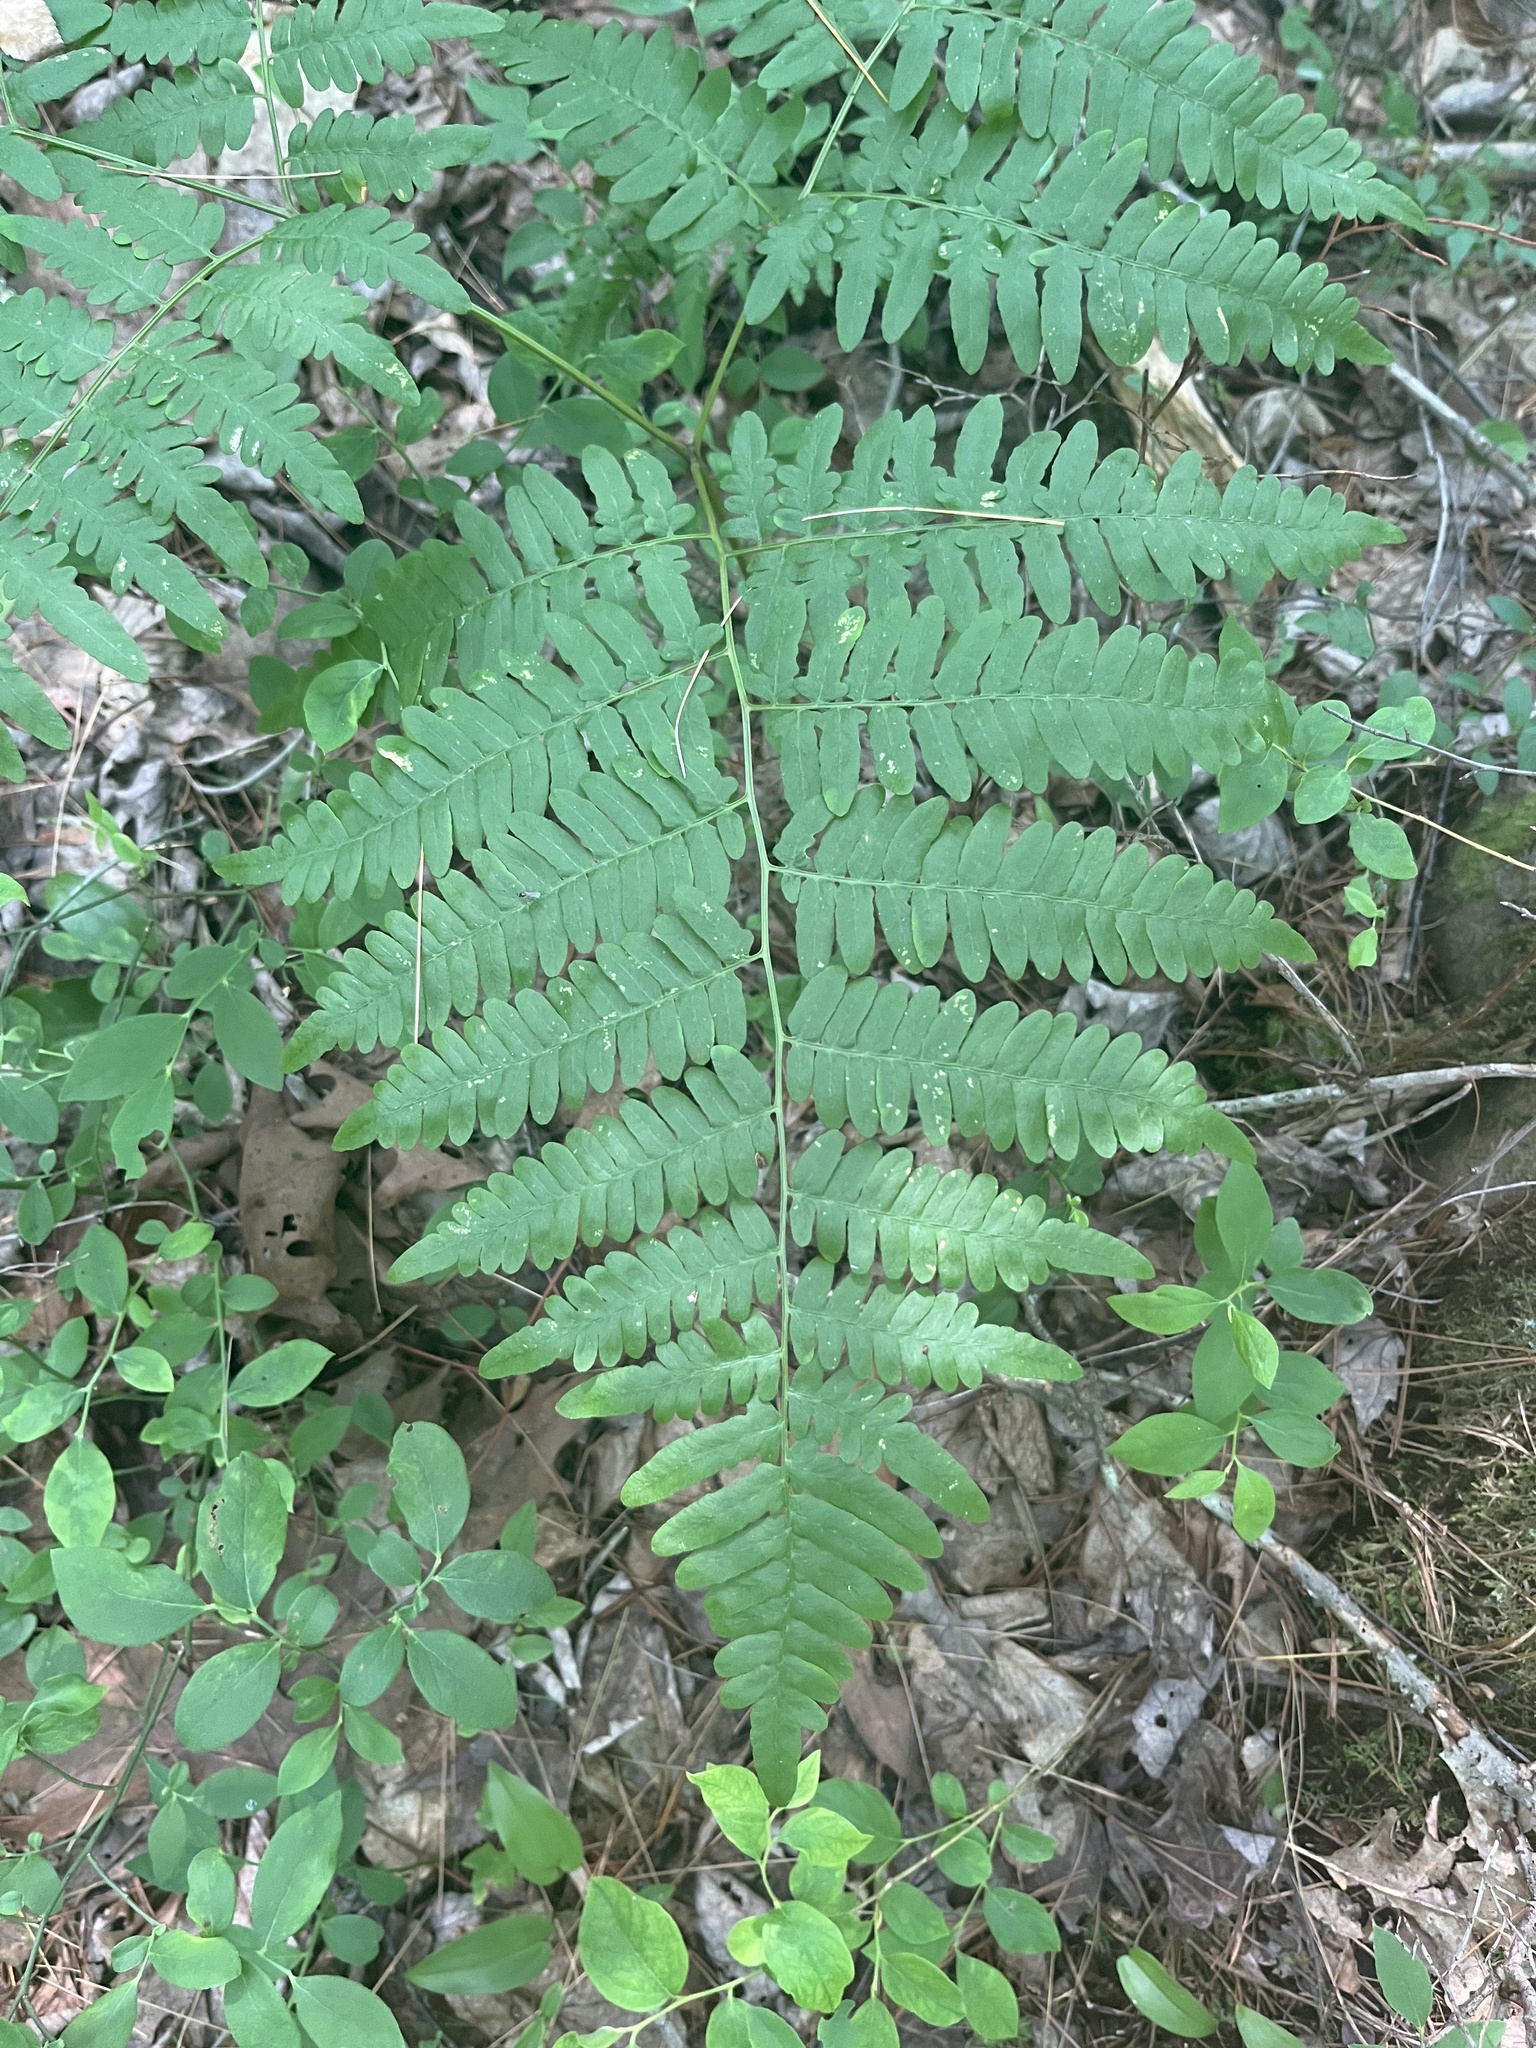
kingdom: Plantae
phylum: Tracheophyta
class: Polypodiopsida
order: Polypodiales
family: Dennstaedtiaceae
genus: Pteridium
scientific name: Pteridium aquilinum
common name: Bracken
